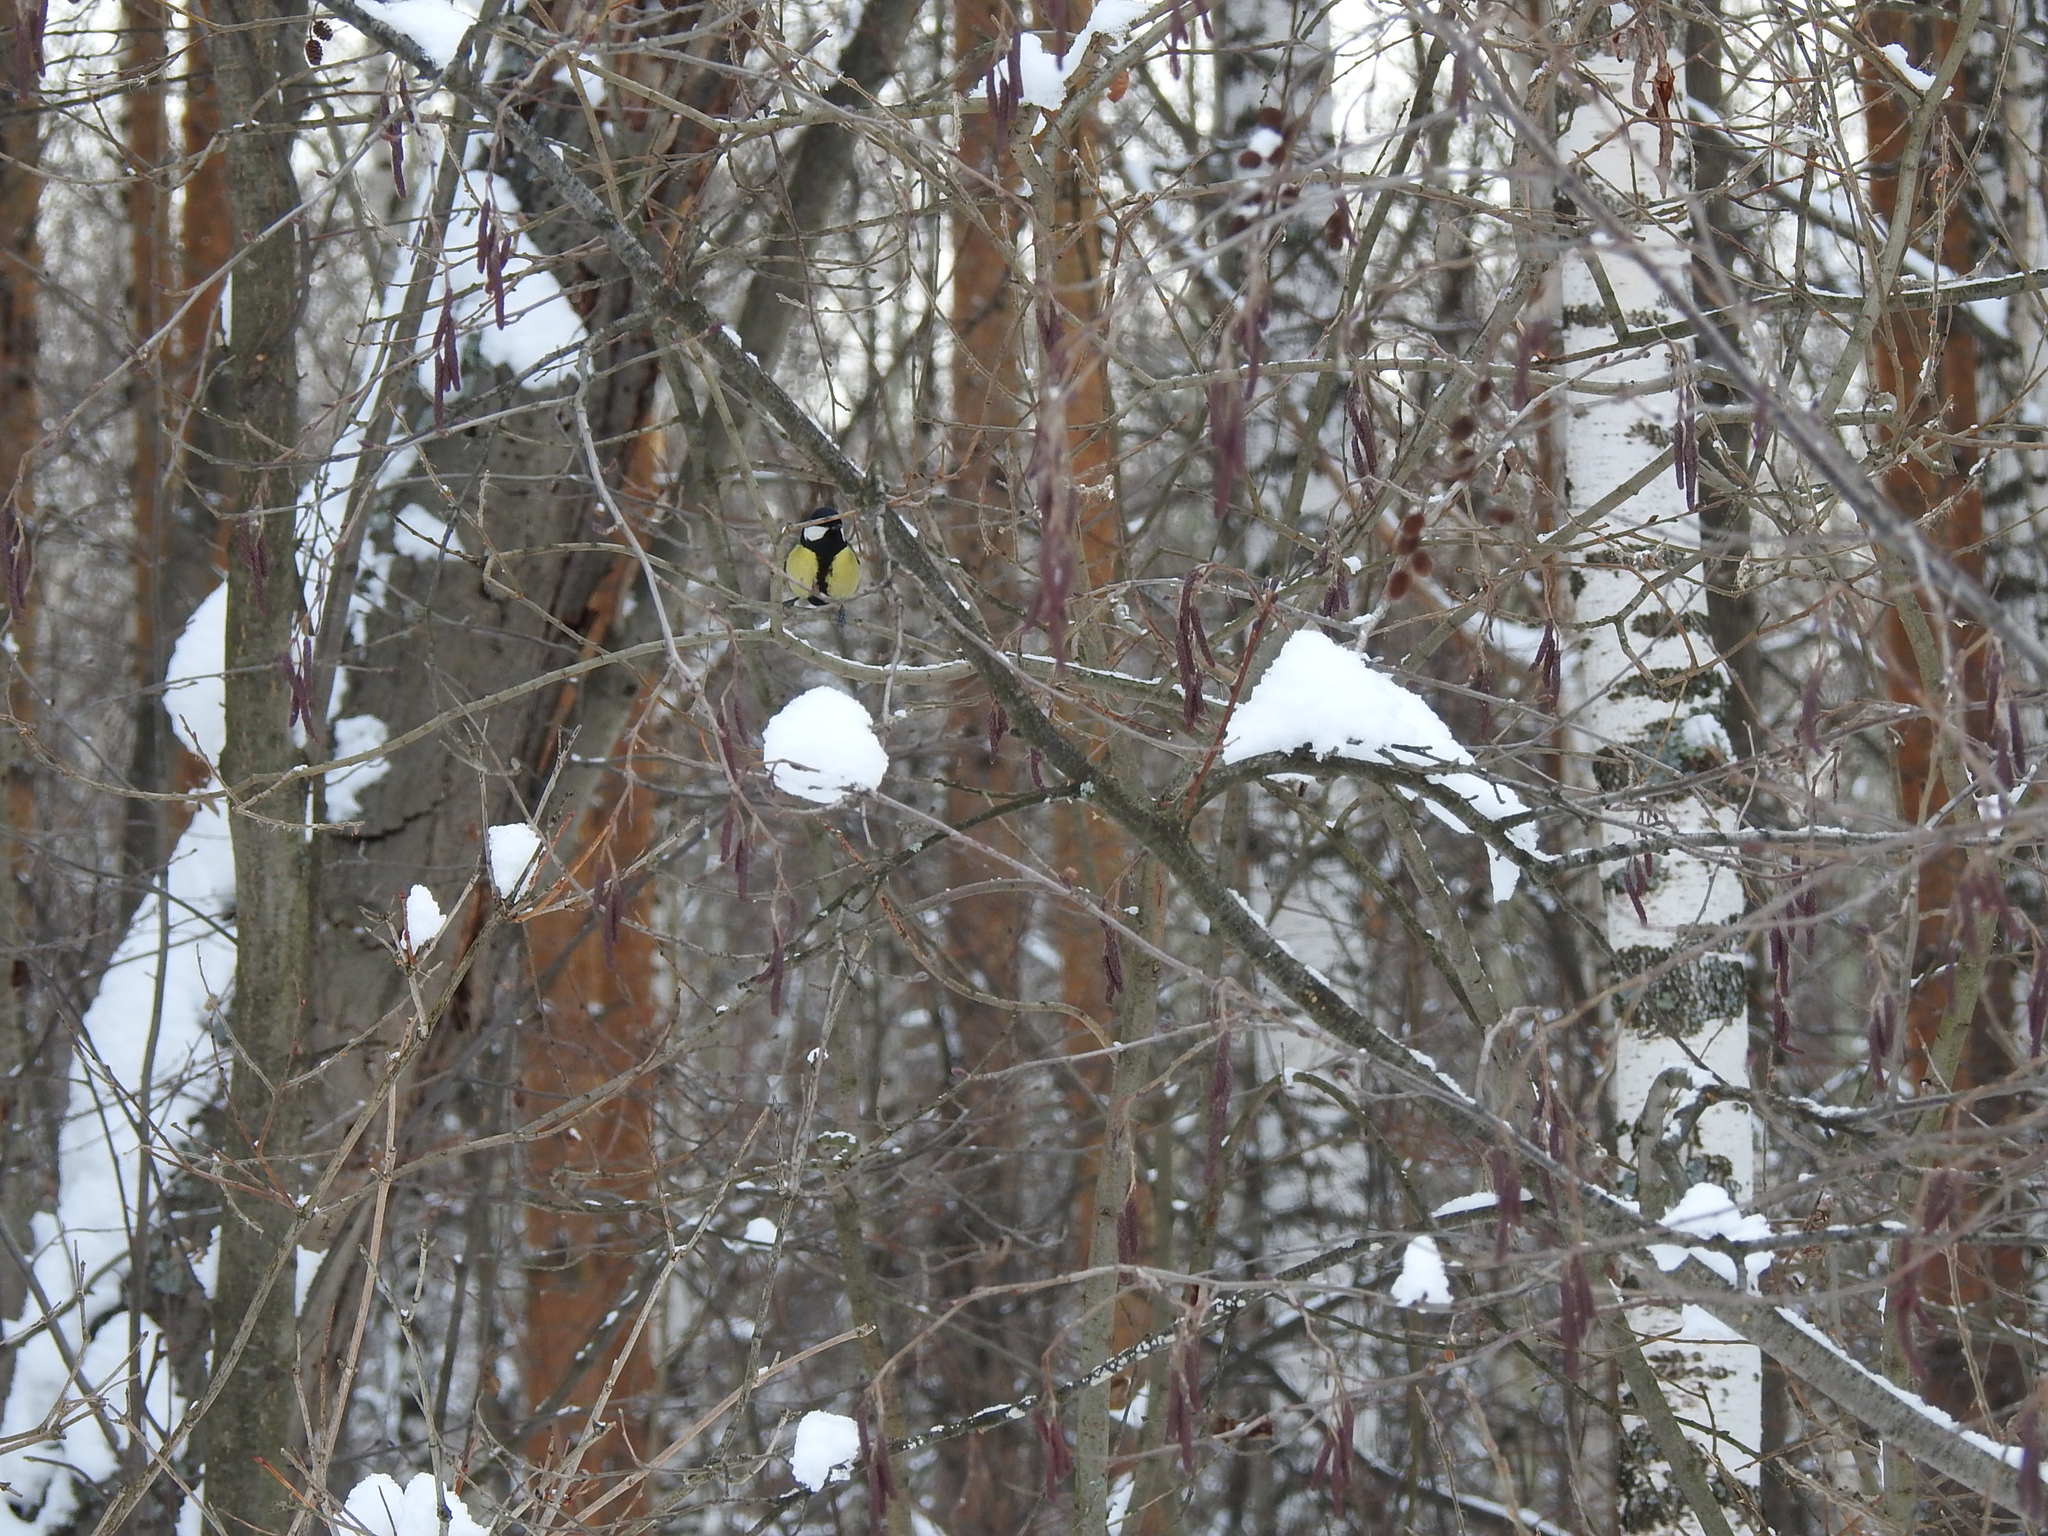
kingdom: Animalia
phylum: Chordata
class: Aves
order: Passeriformes
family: Paridae
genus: Parus
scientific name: Parus major
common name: Great tit
